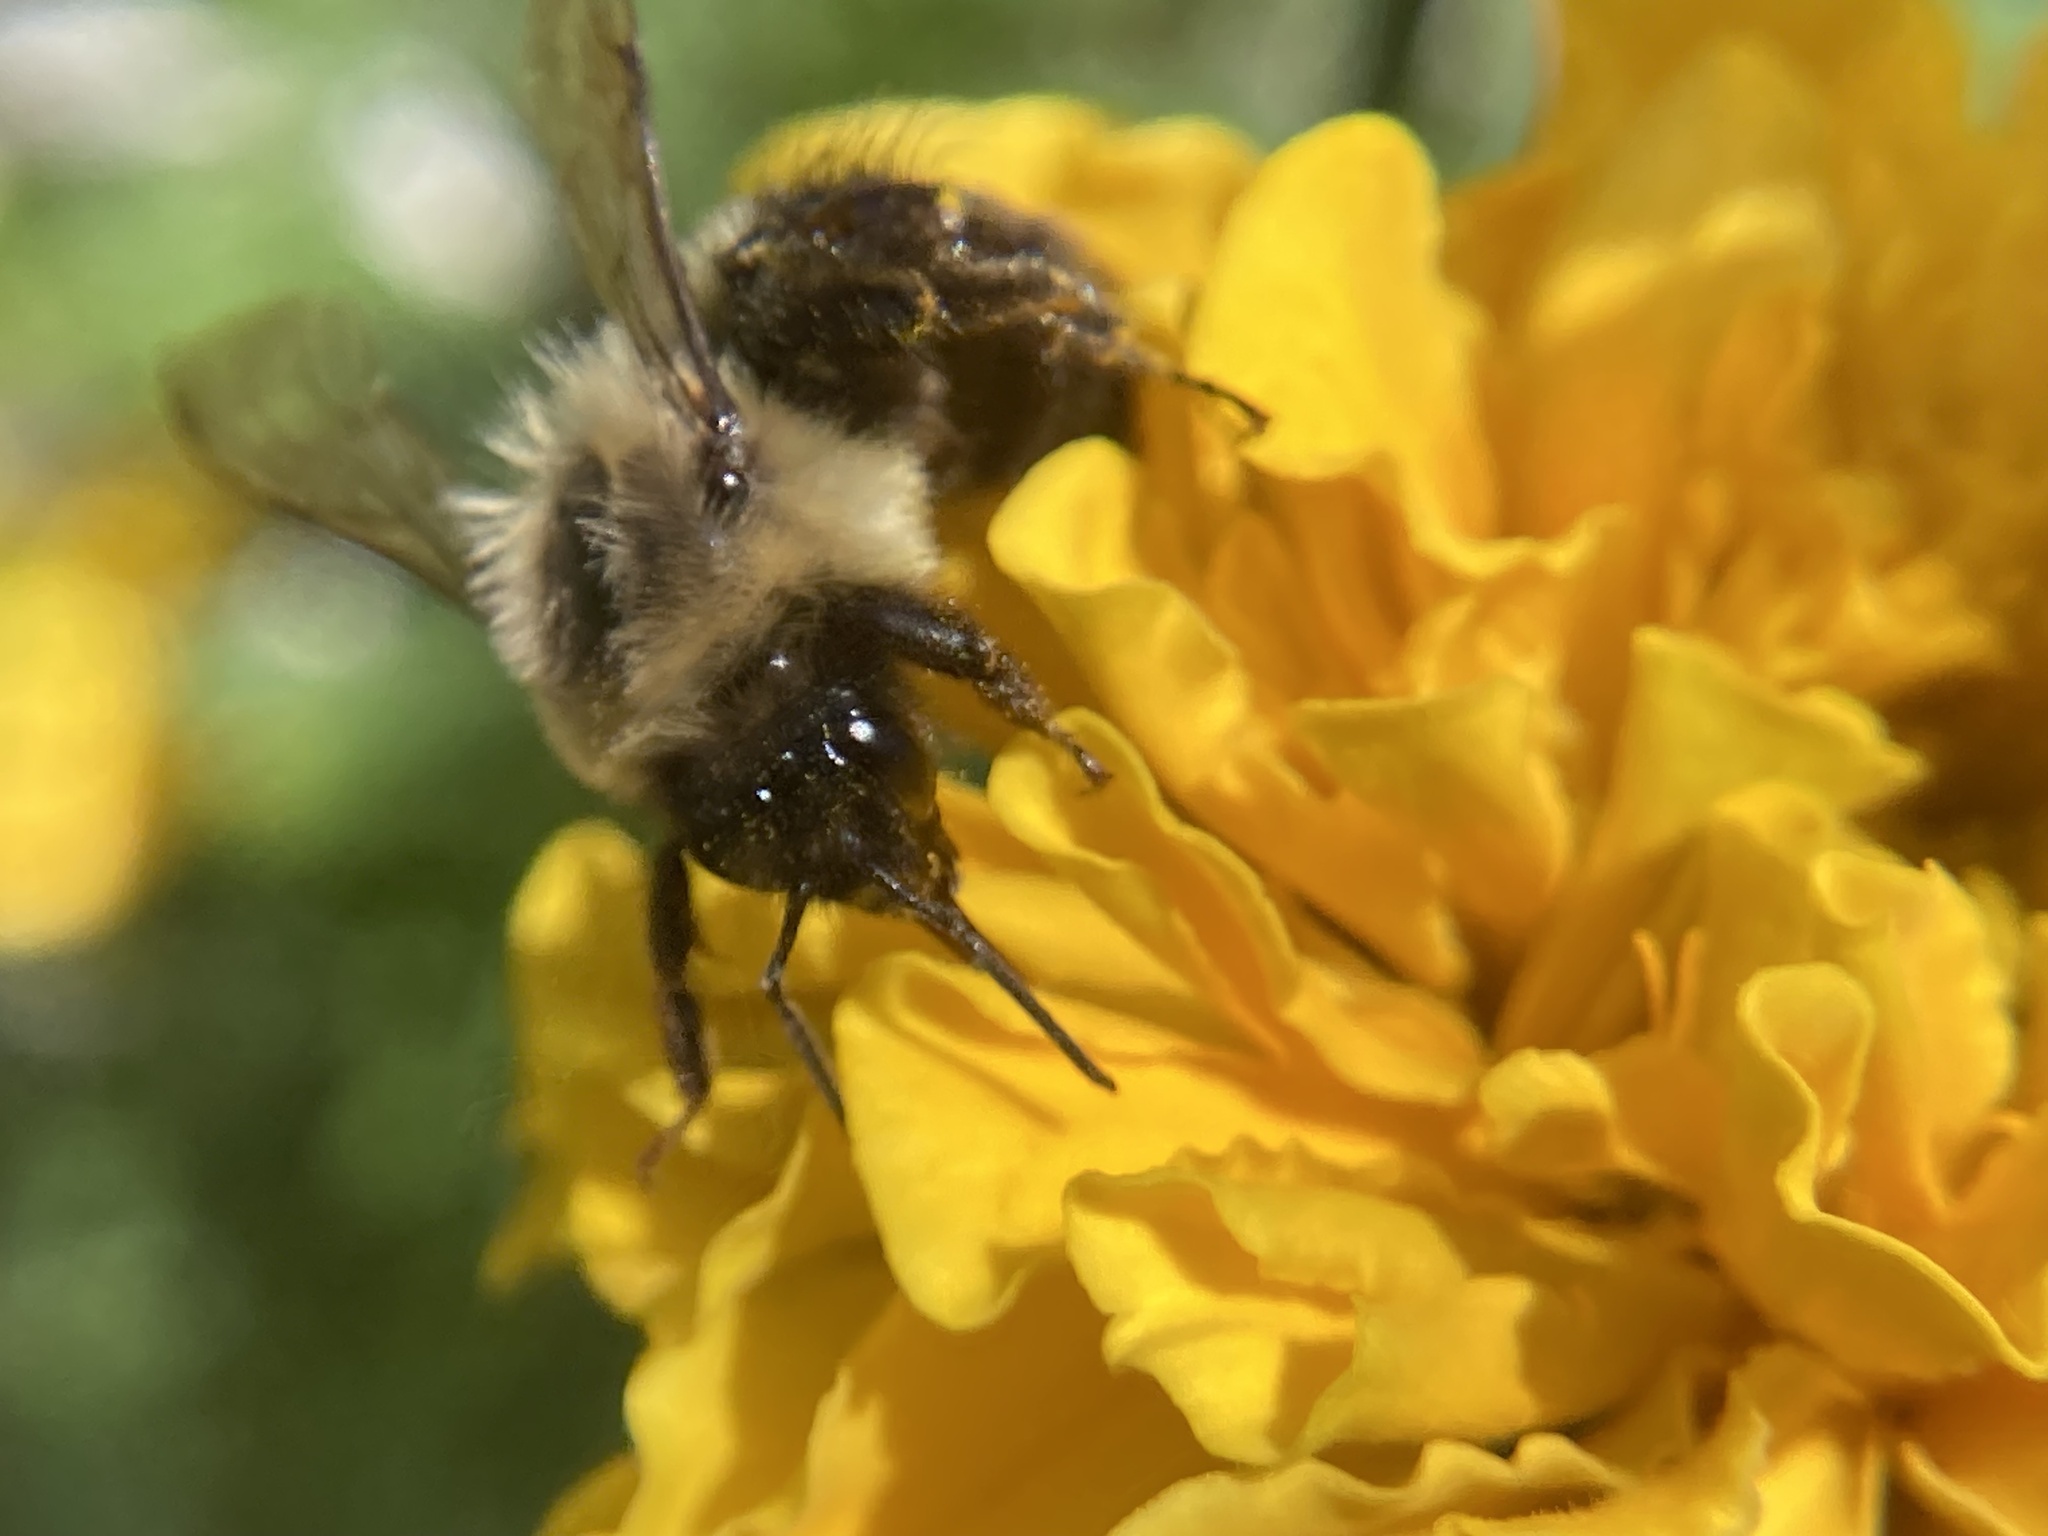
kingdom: Animalia
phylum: Arthropoda
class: Insecta
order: Hymenoptera
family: Apidae
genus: Bombus
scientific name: Bombus impatiens
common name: Common eastern bumble bee
